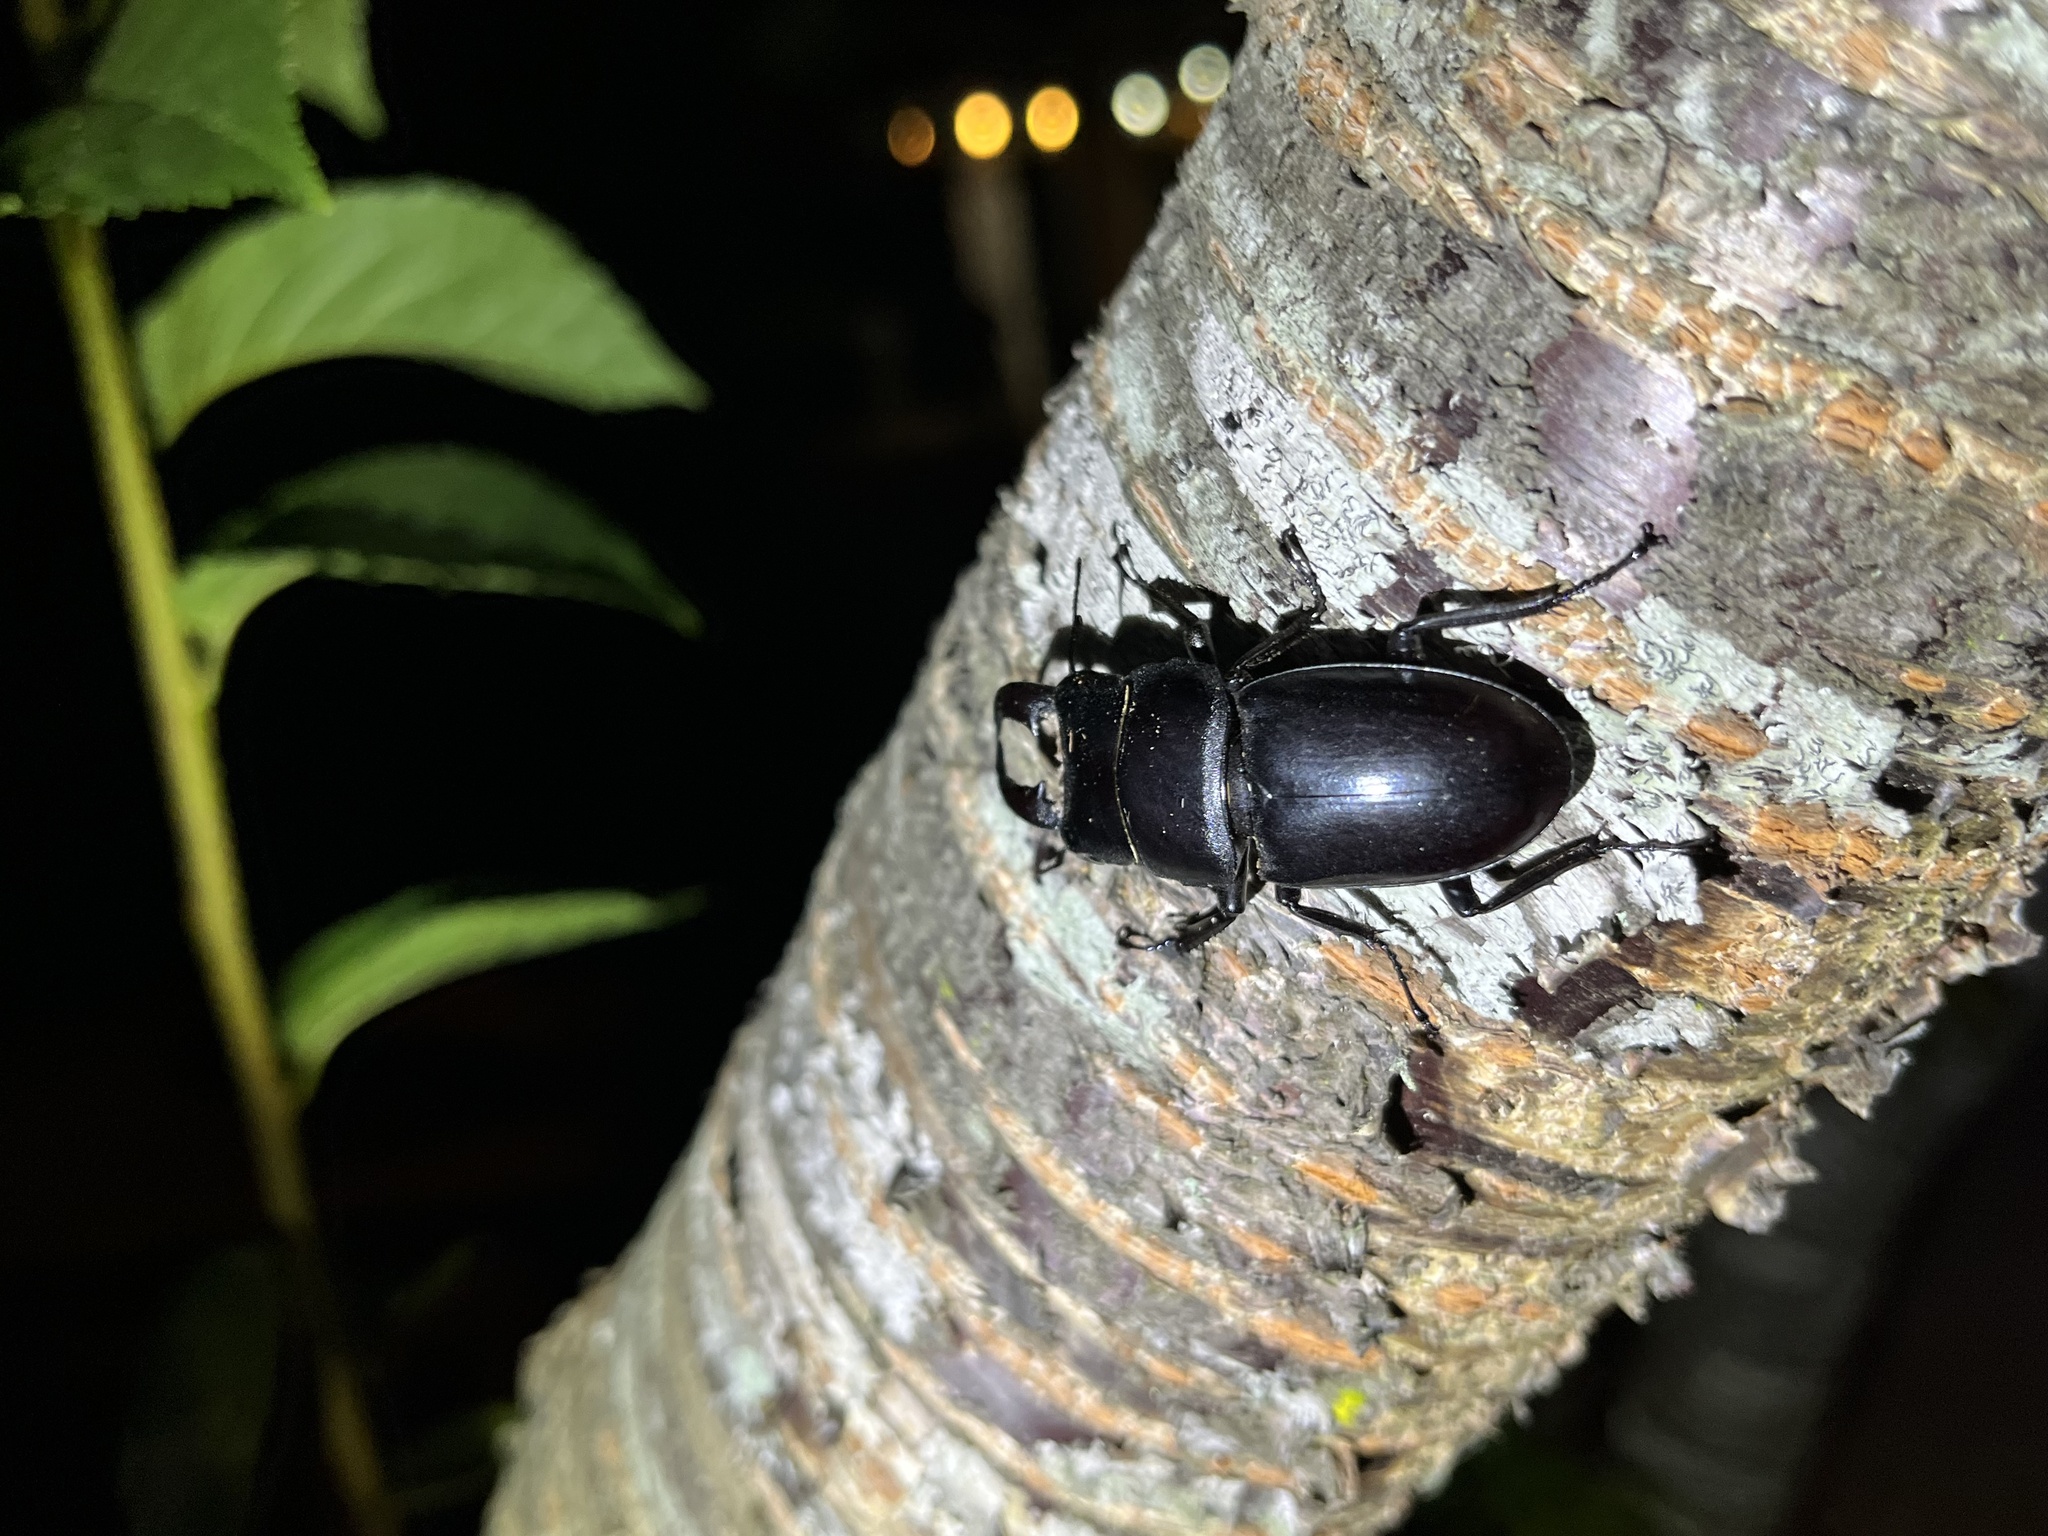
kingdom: Animalia
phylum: Arthropoda
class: Insecta
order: Coleoptera
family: Lucanidae
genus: Serrognathus
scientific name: Serrognathus titanus
